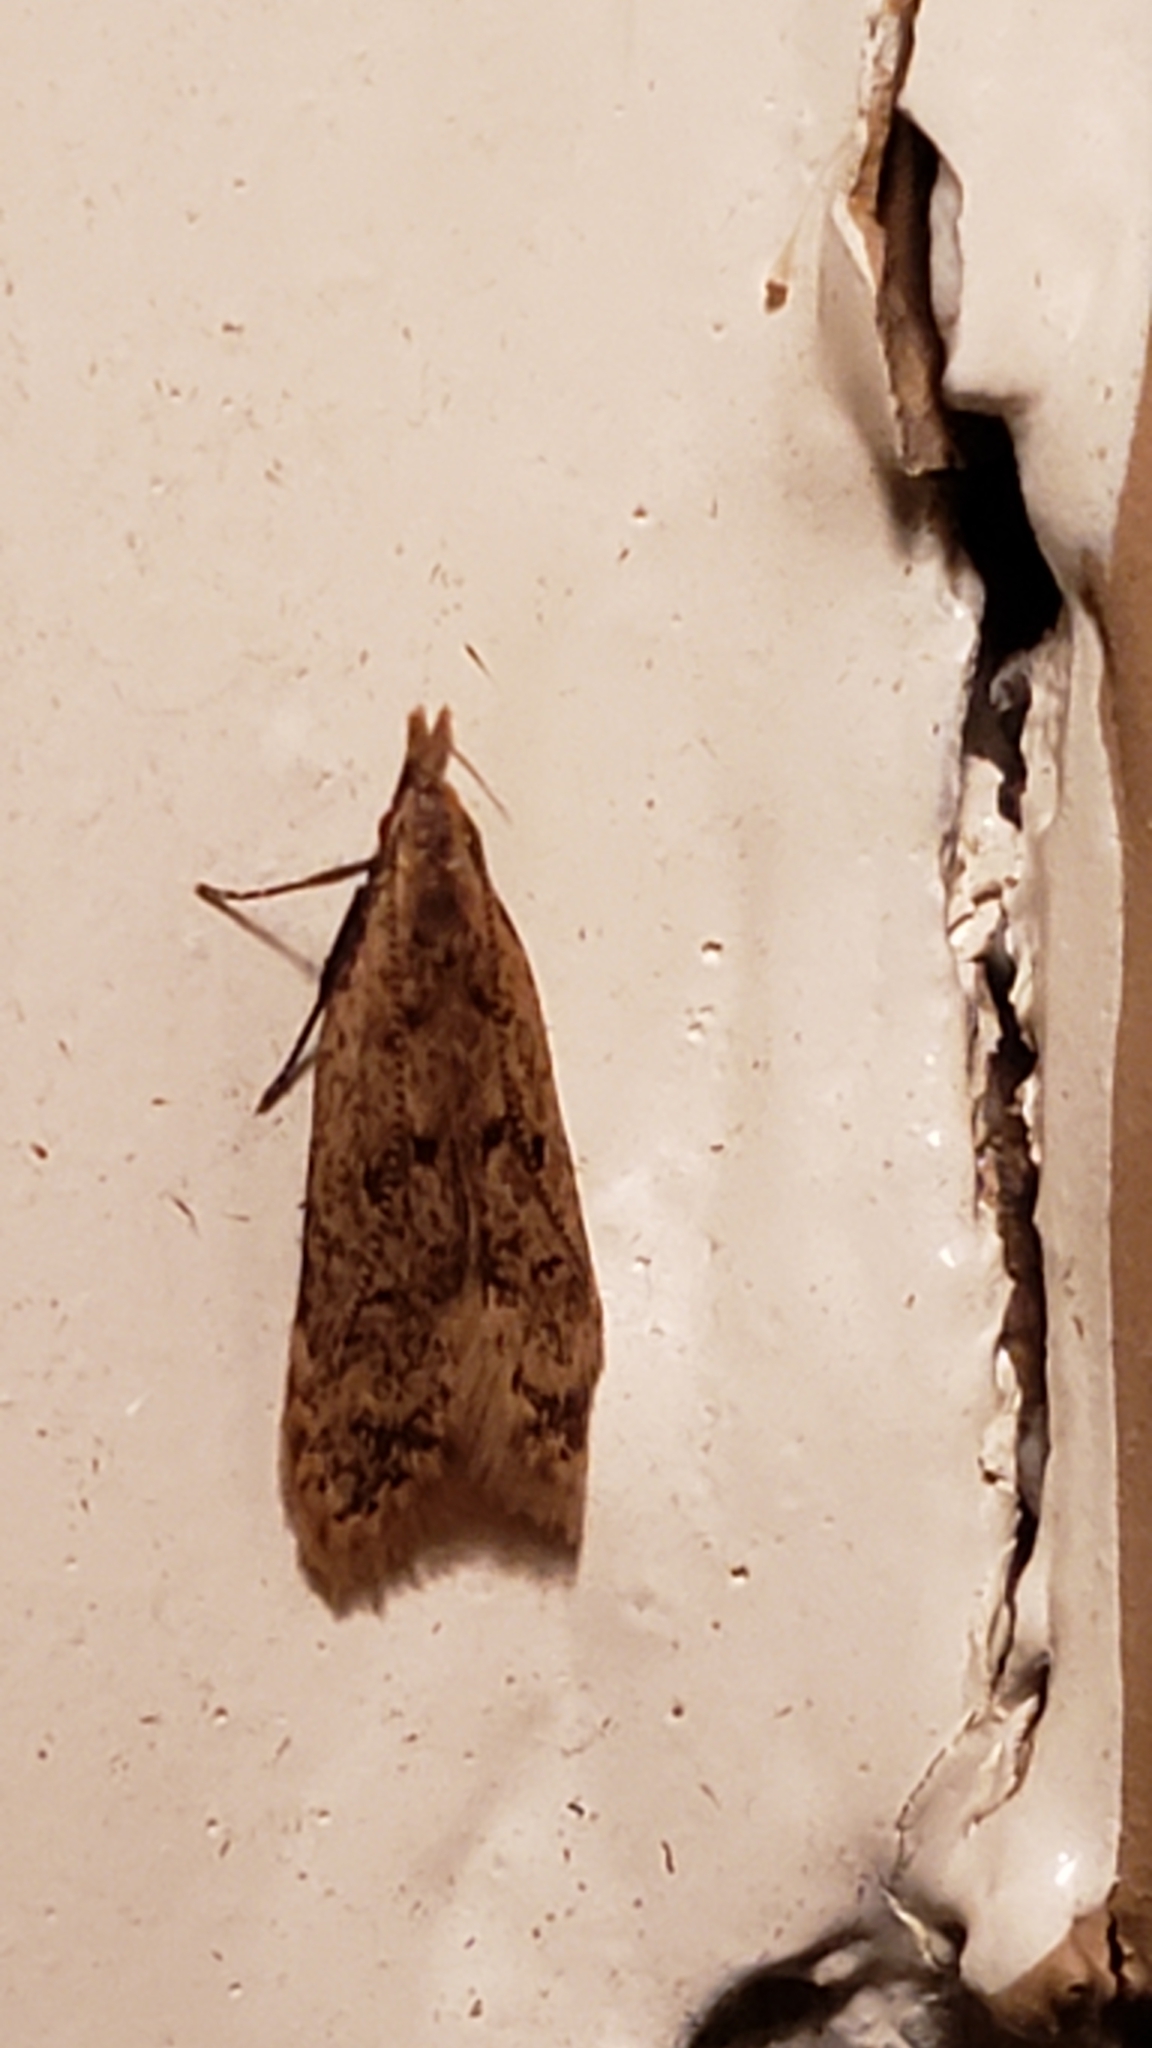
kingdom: Animalia
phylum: Arthropoda
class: Insecta
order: Lepidoptera
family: Gelechiidae
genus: Dichomeris
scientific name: Dichomeris punctipennella
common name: Many-spotted dichomeris moth
